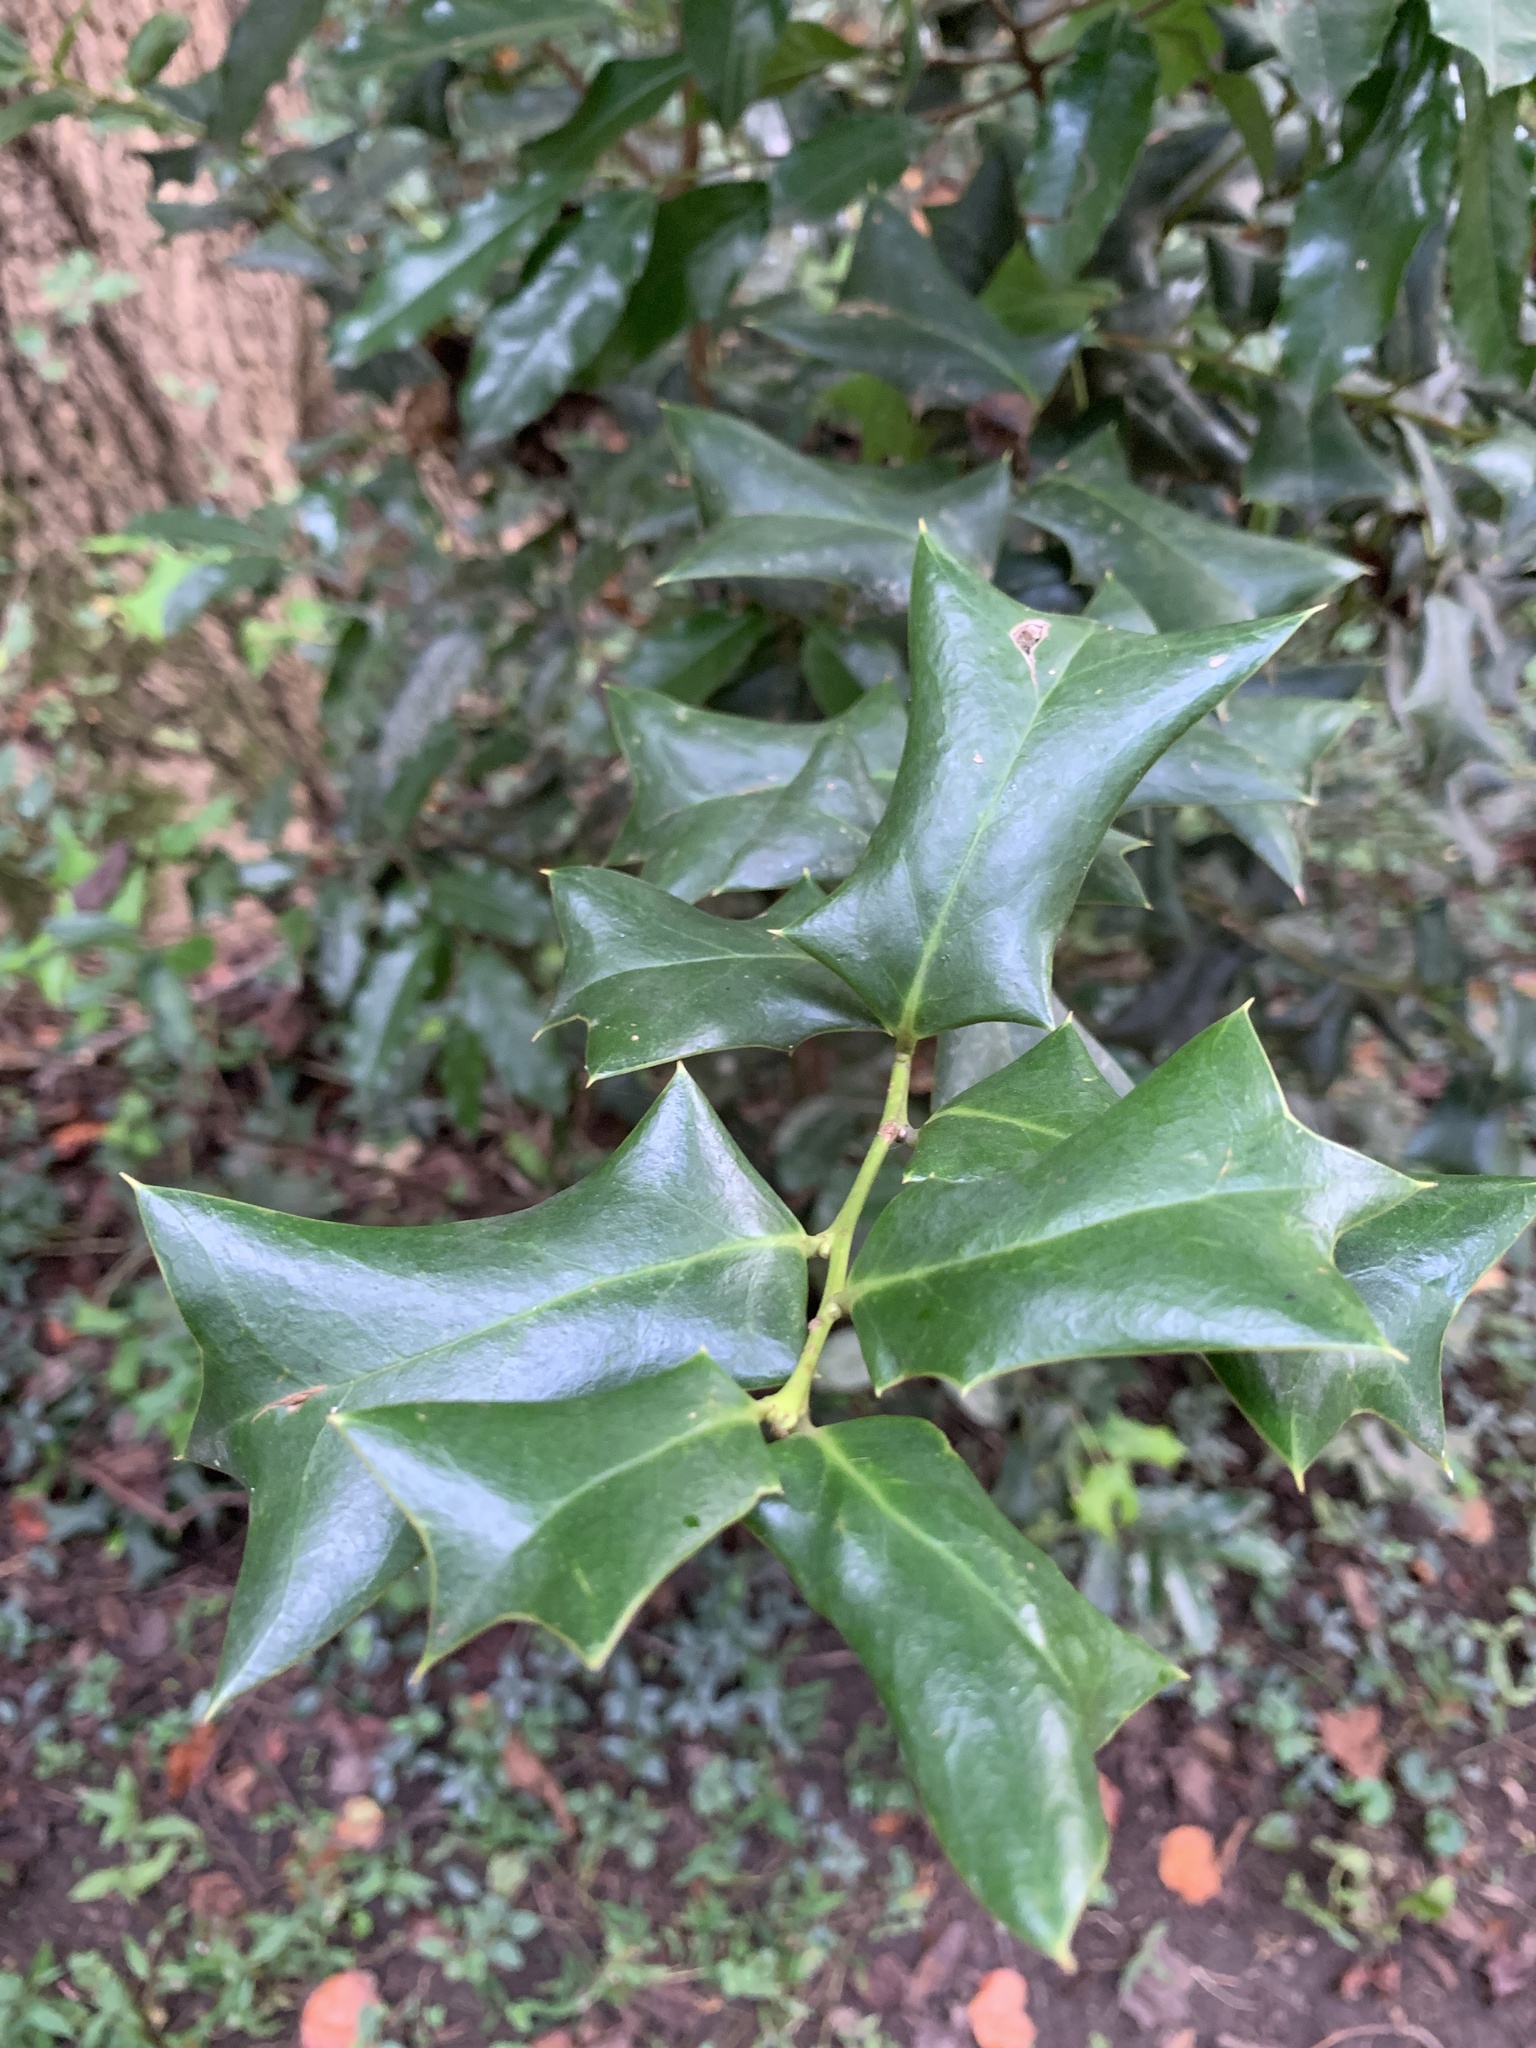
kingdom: Plantae
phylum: Tracheophyta
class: Magnoliopsida
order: Aquifoliales
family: Aquifoliaceae
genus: Ilex
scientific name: Ilex cornuta
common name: Chinese holly
